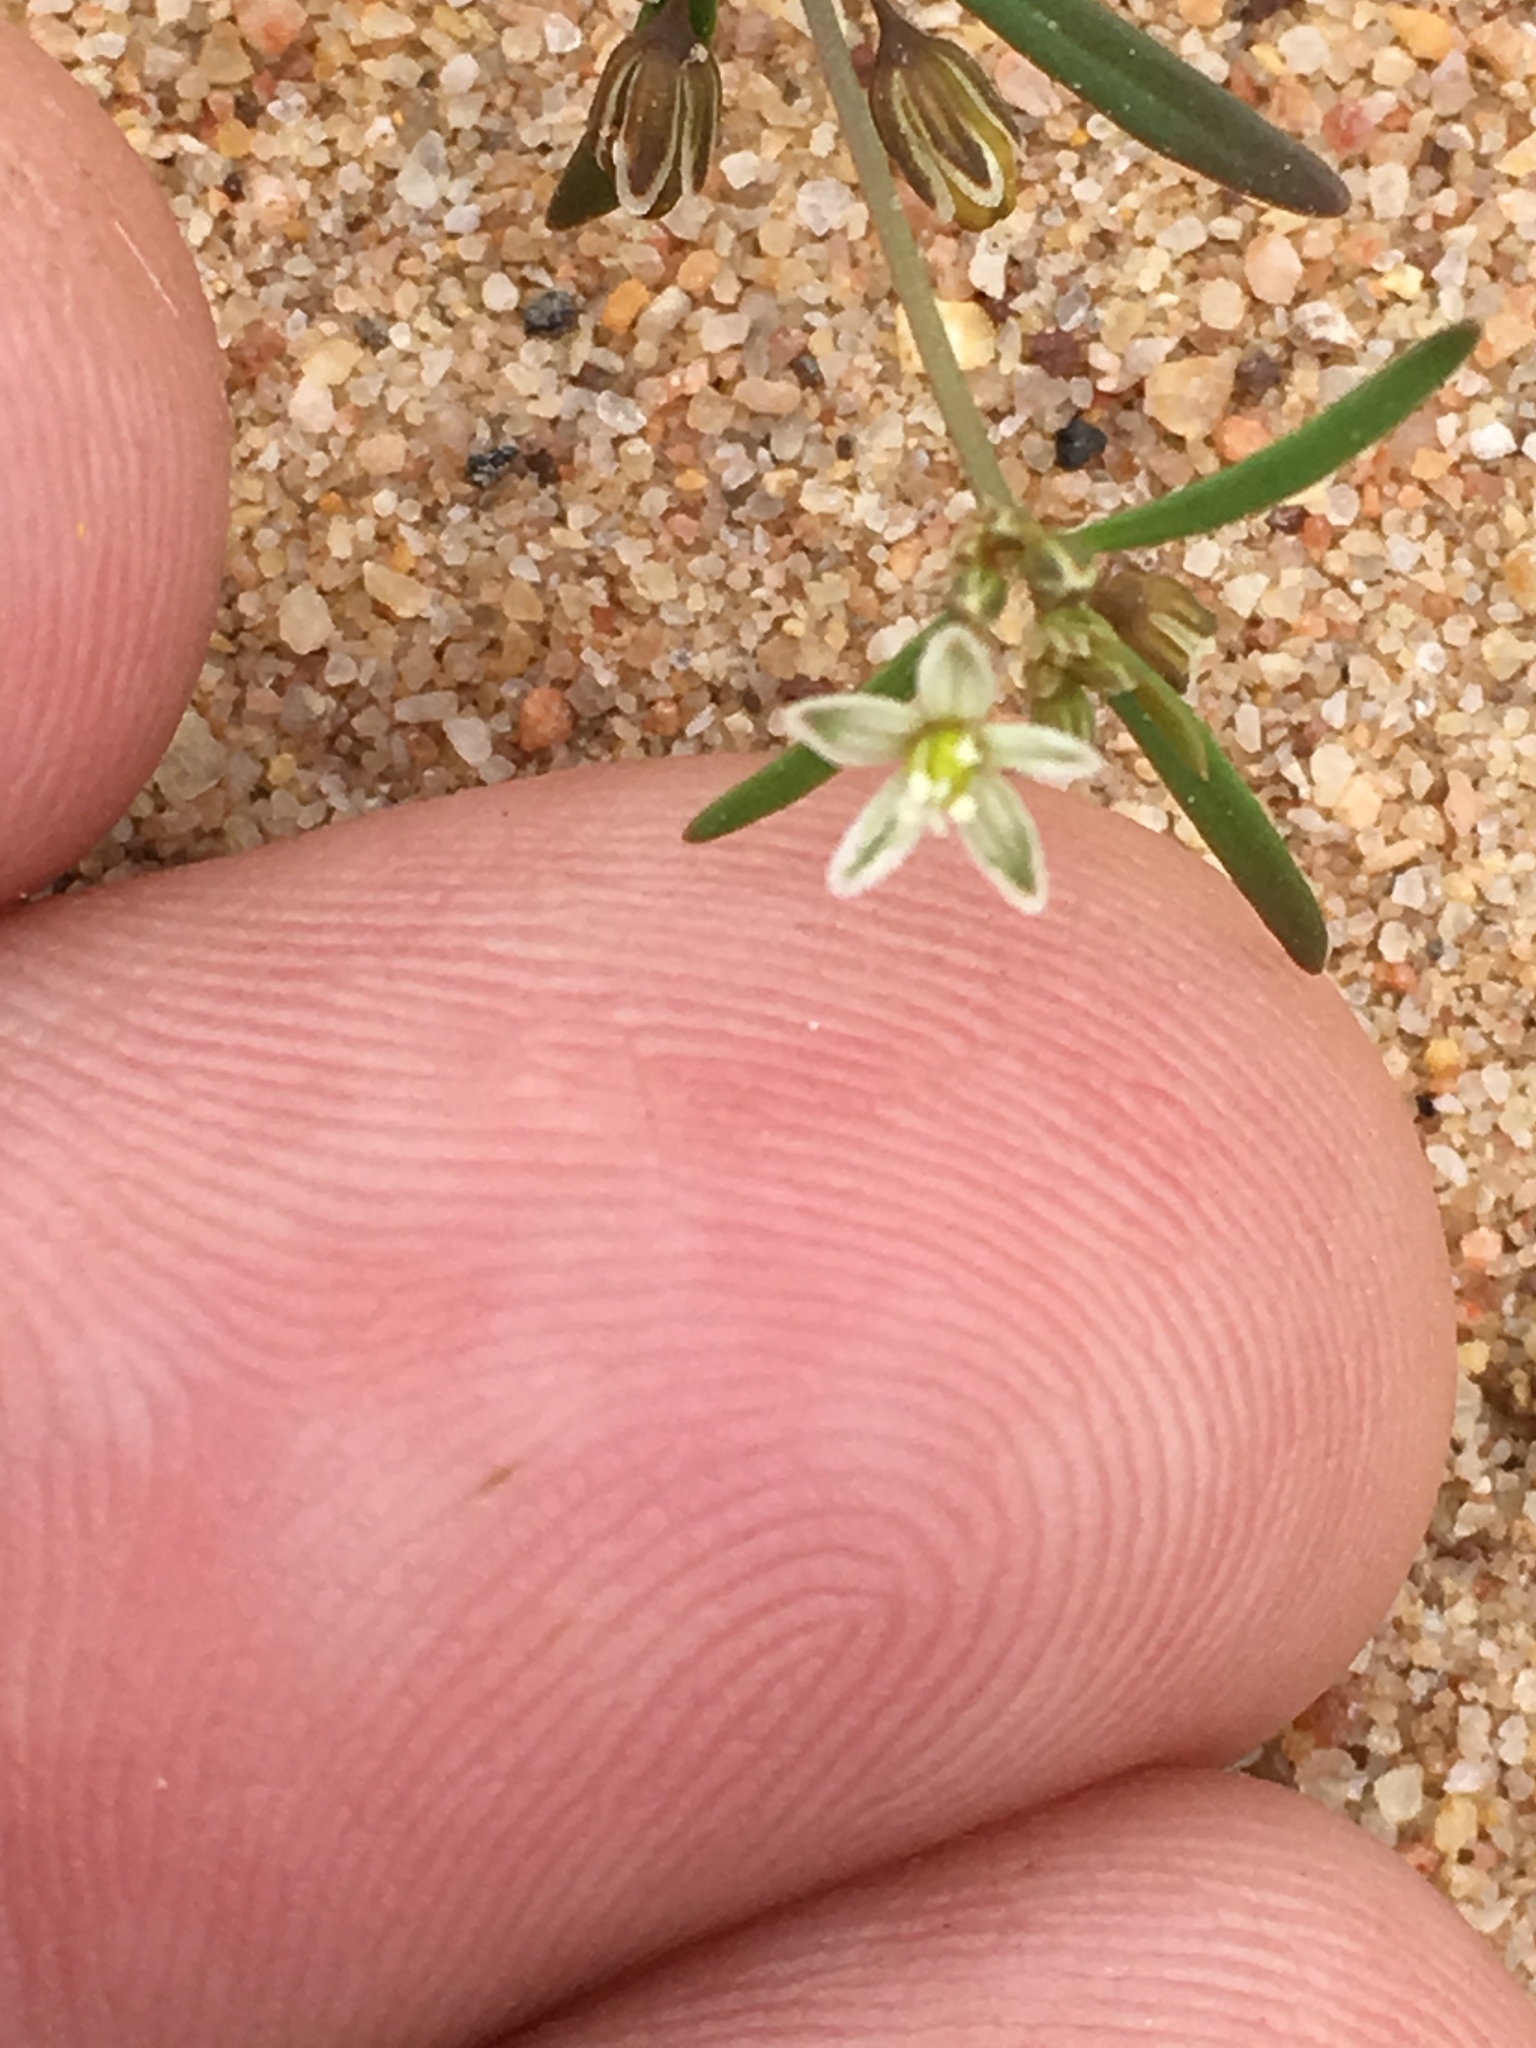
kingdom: Plantae
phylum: Tracheophyta
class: Magnoliopsida
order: Caryophyllales
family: Molluginaceae
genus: Mollugo
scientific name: Mollugo verticillata
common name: Green carpetweed
